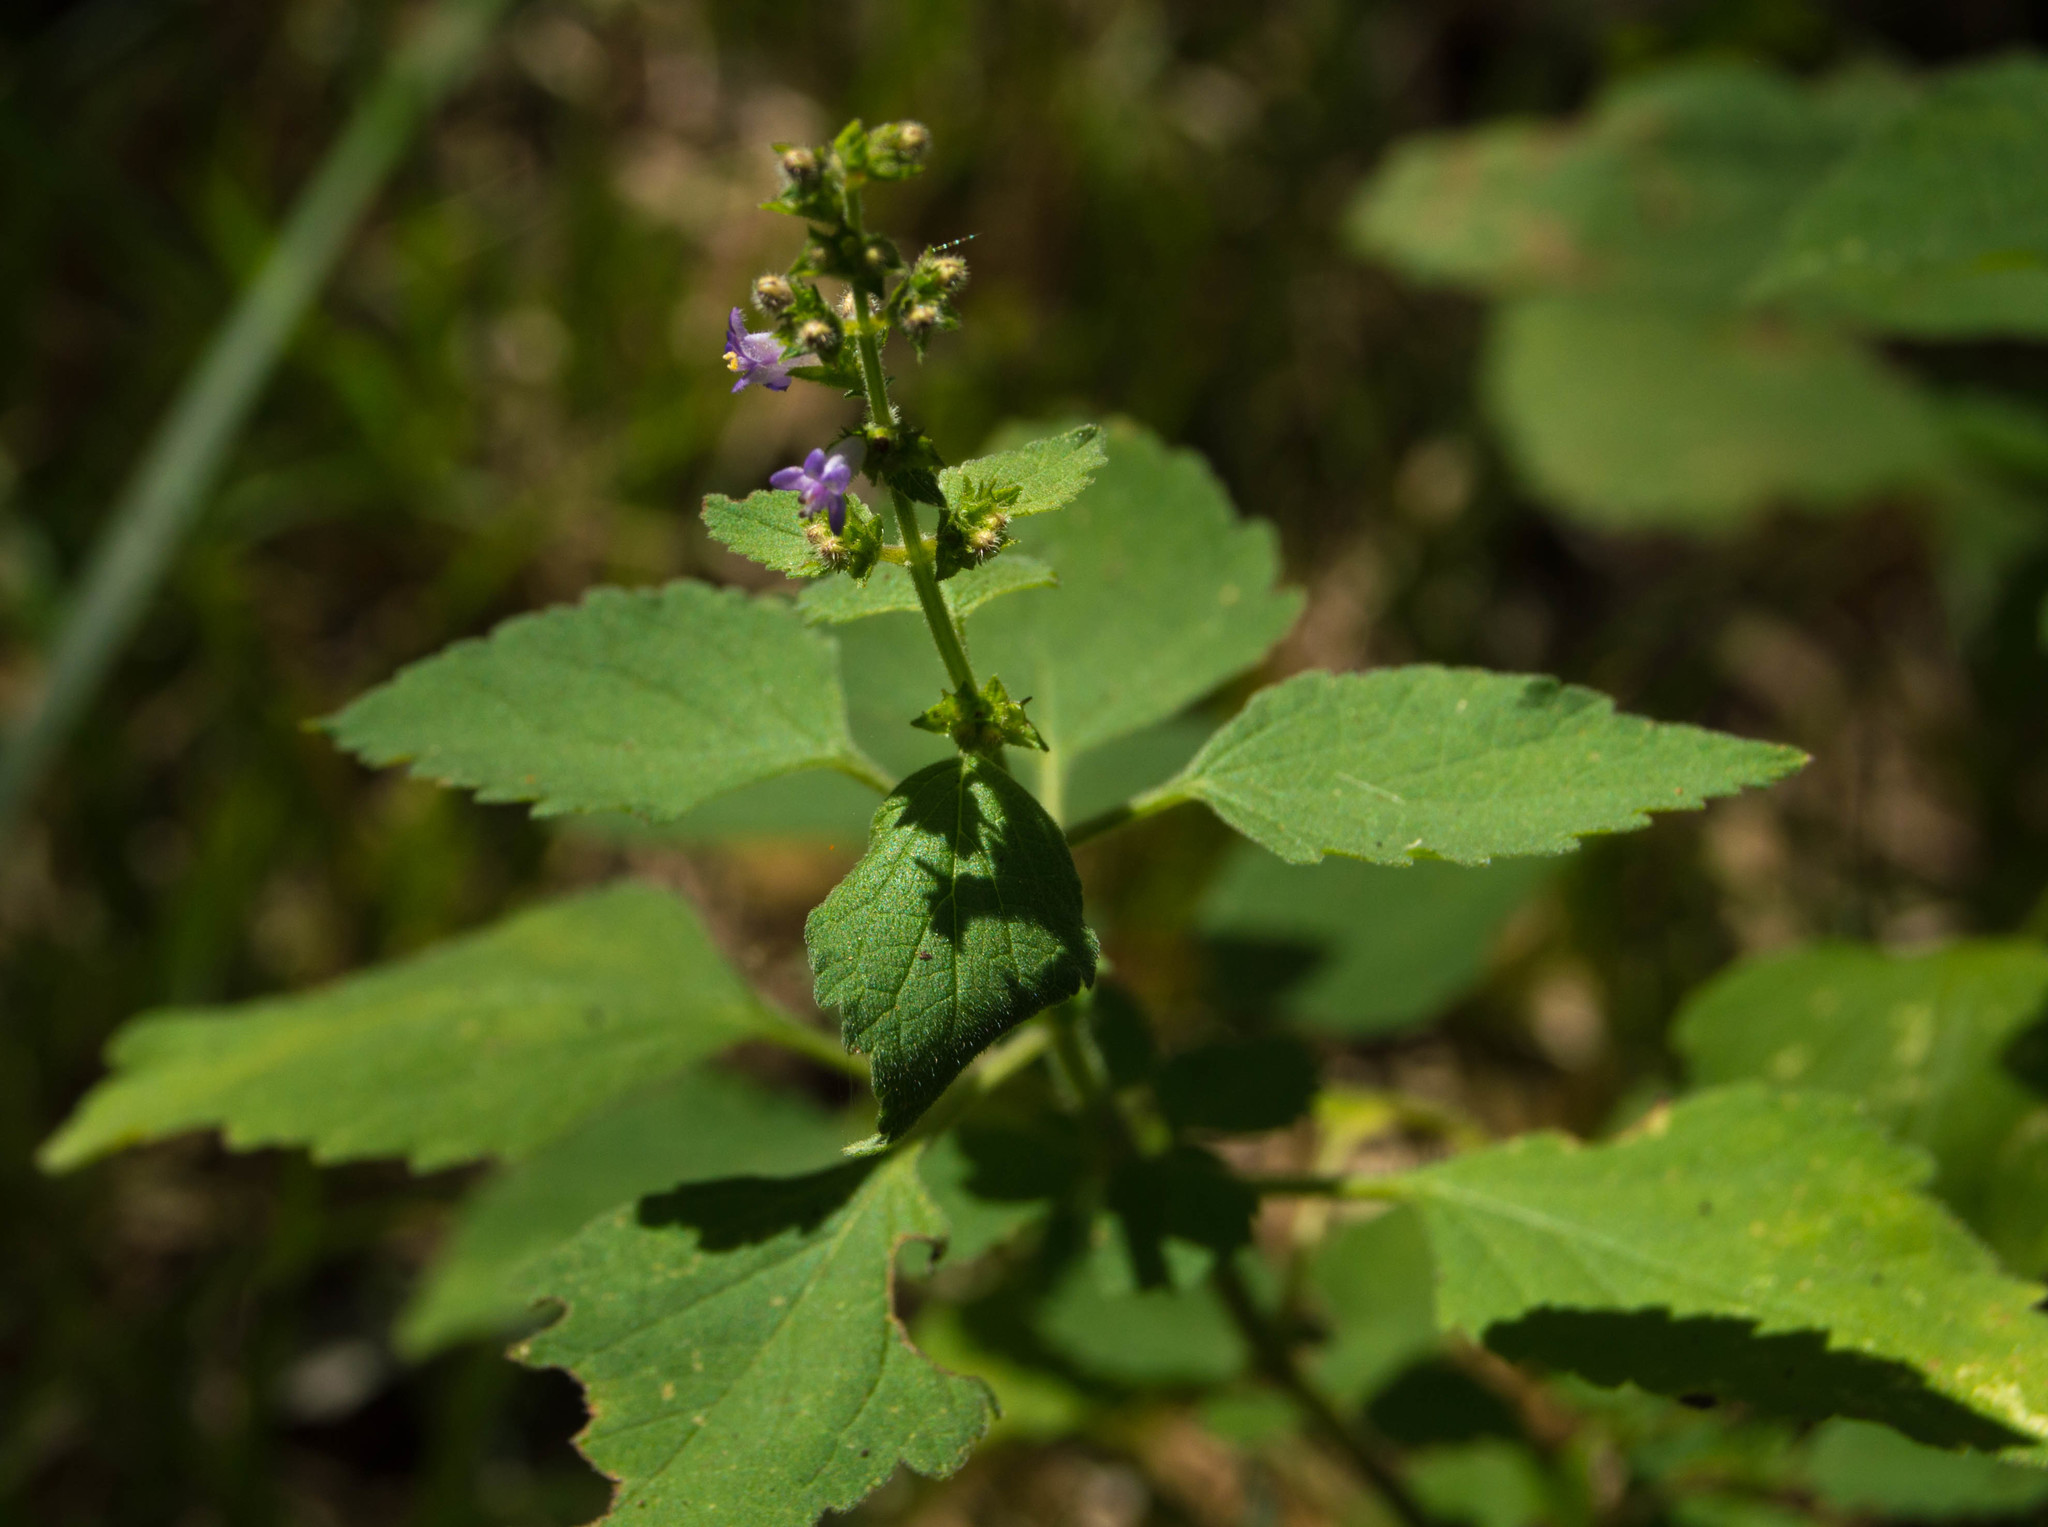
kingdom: Plantae
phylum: Tracheophyta
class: Magnoliopsida
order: Lamiales
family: Lamiaceae
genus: Cantinoa
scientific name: Cantinoa mutabilis
